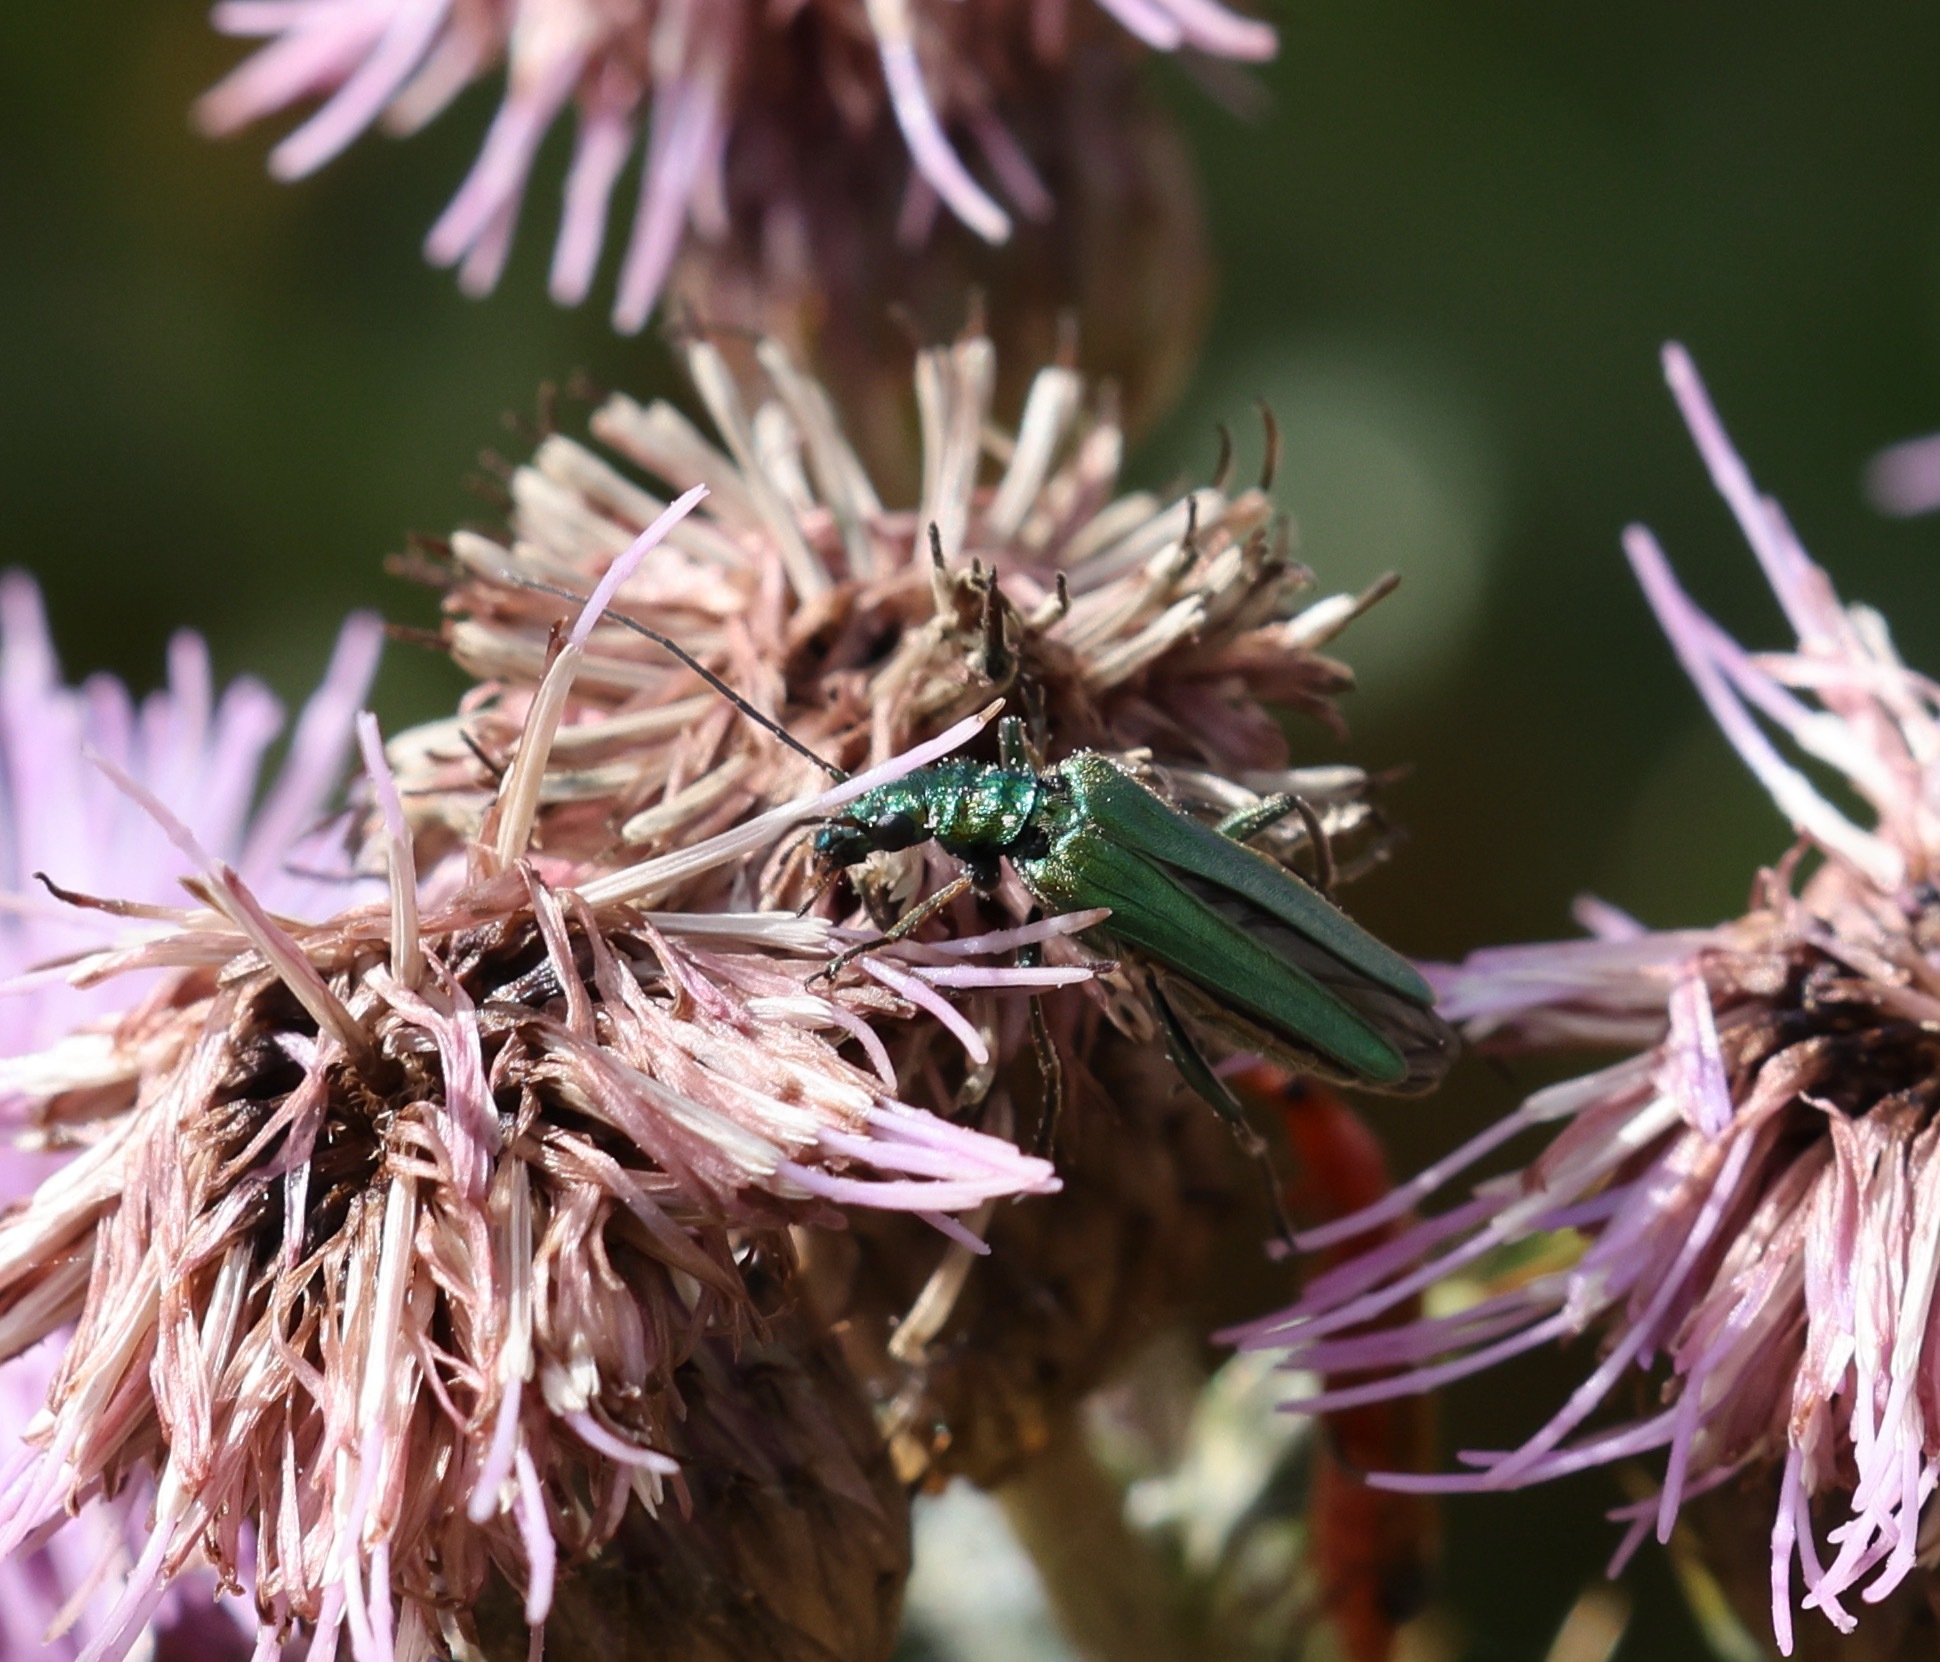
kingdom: Animalia
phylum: Arthropoda
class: Insecta
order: Coleoptera
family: Oedemeridae
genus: Oedemera
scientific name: Oedemera nobilis
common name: Swollen-thighed beetle
